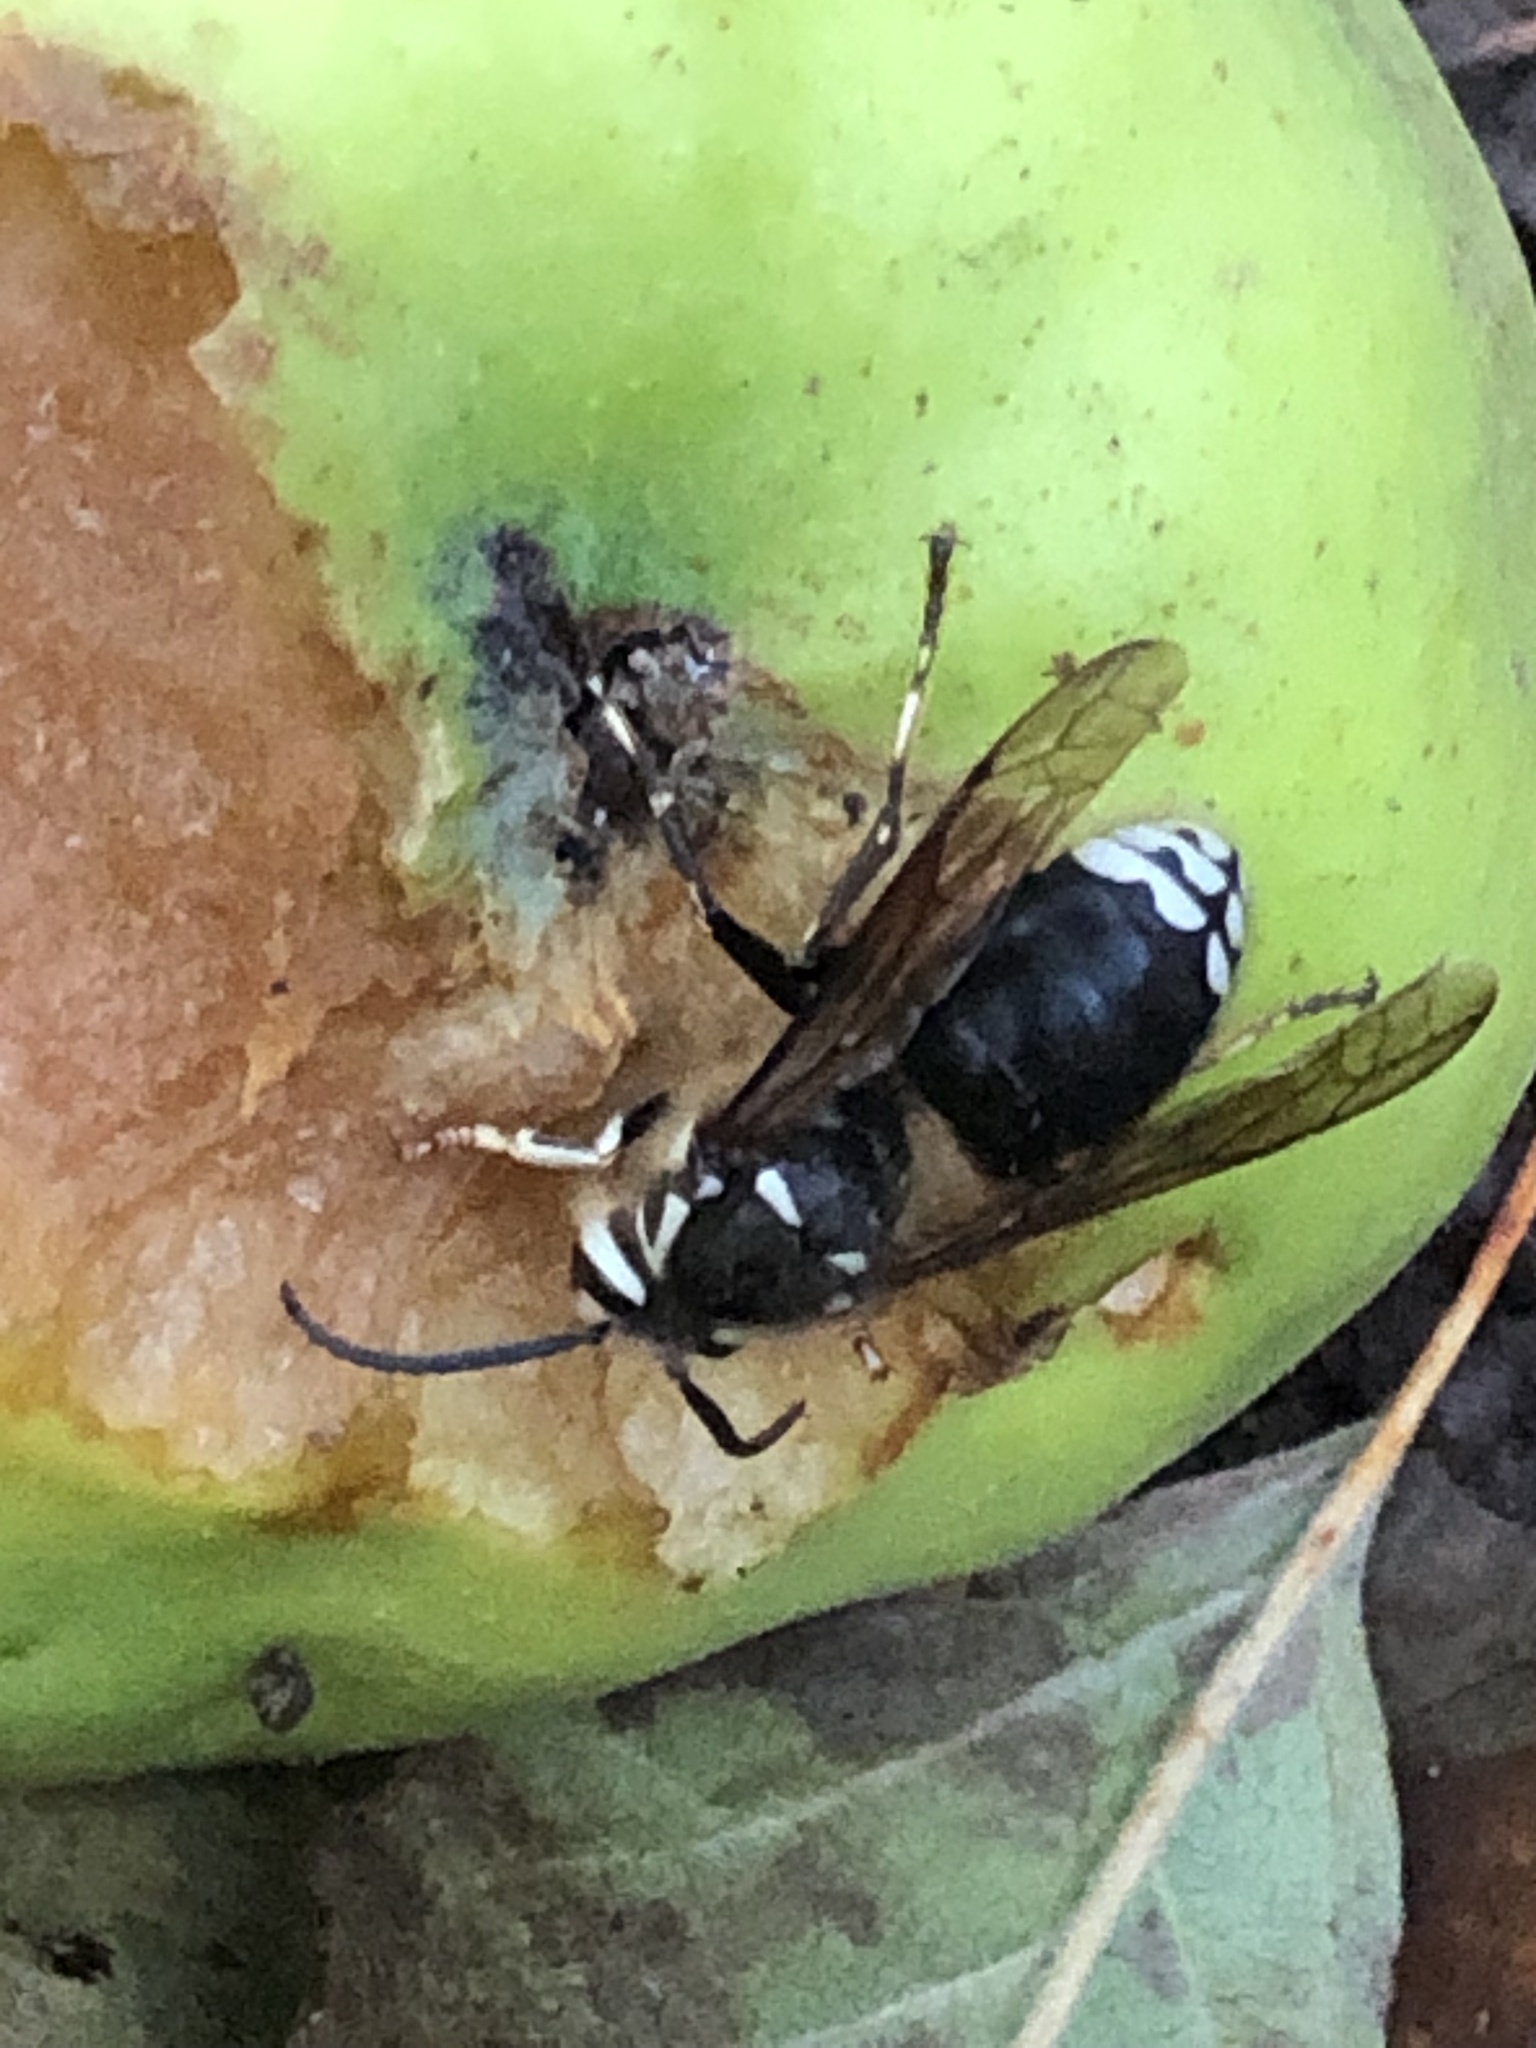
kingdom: Animalia
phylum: Arthropoda
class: Insecta
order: Hymenoptera
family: Vespidae
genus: Dolichovespula
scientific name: Dolichovespula maculata
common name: Bald-faced hornet
